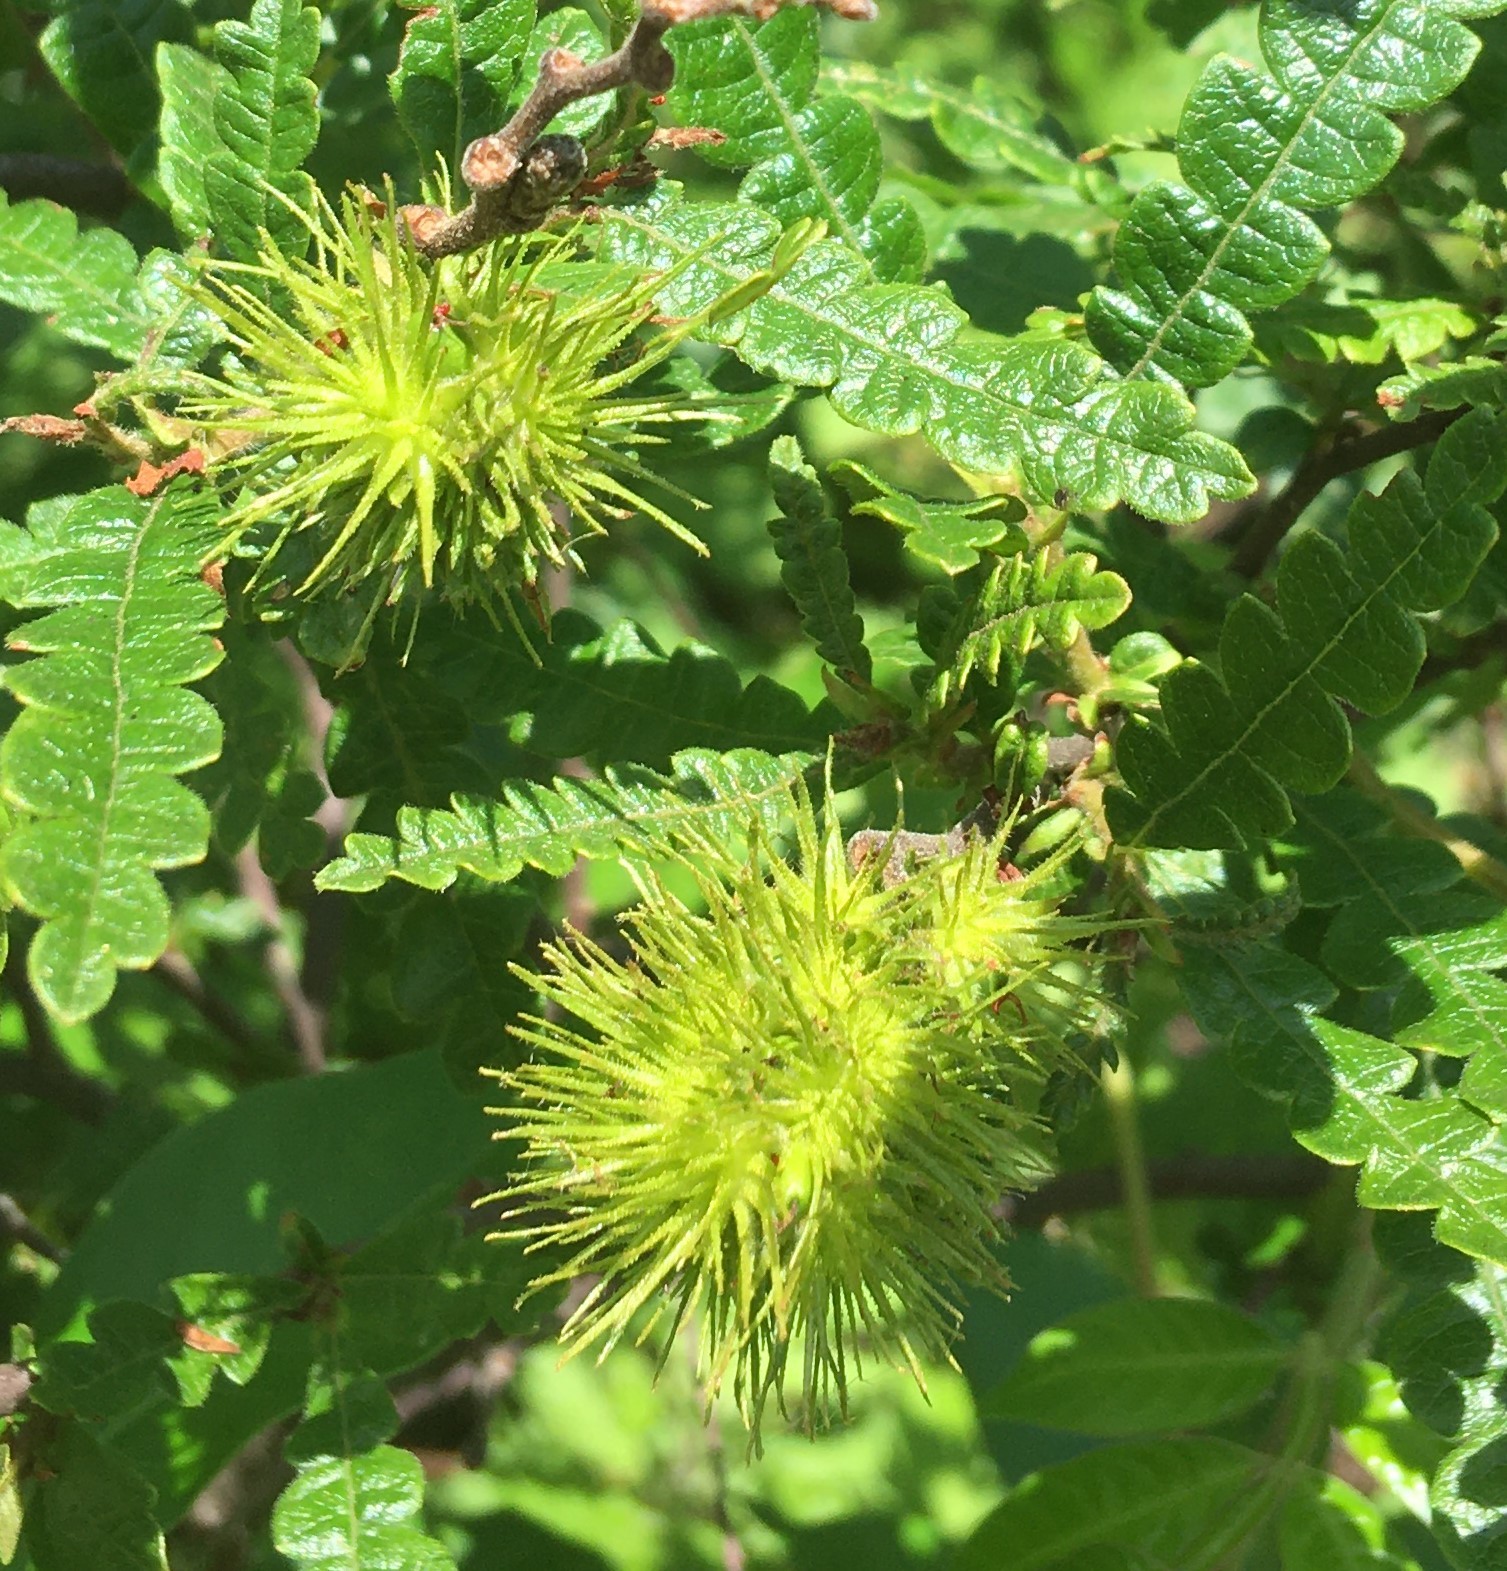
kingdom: Plantae
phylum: Tracheophyta
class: Magnoliopsida
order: Fagales
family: Myricaceae
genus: Comptonia
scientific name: Comptonia peregrina
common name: Sweet-fern
